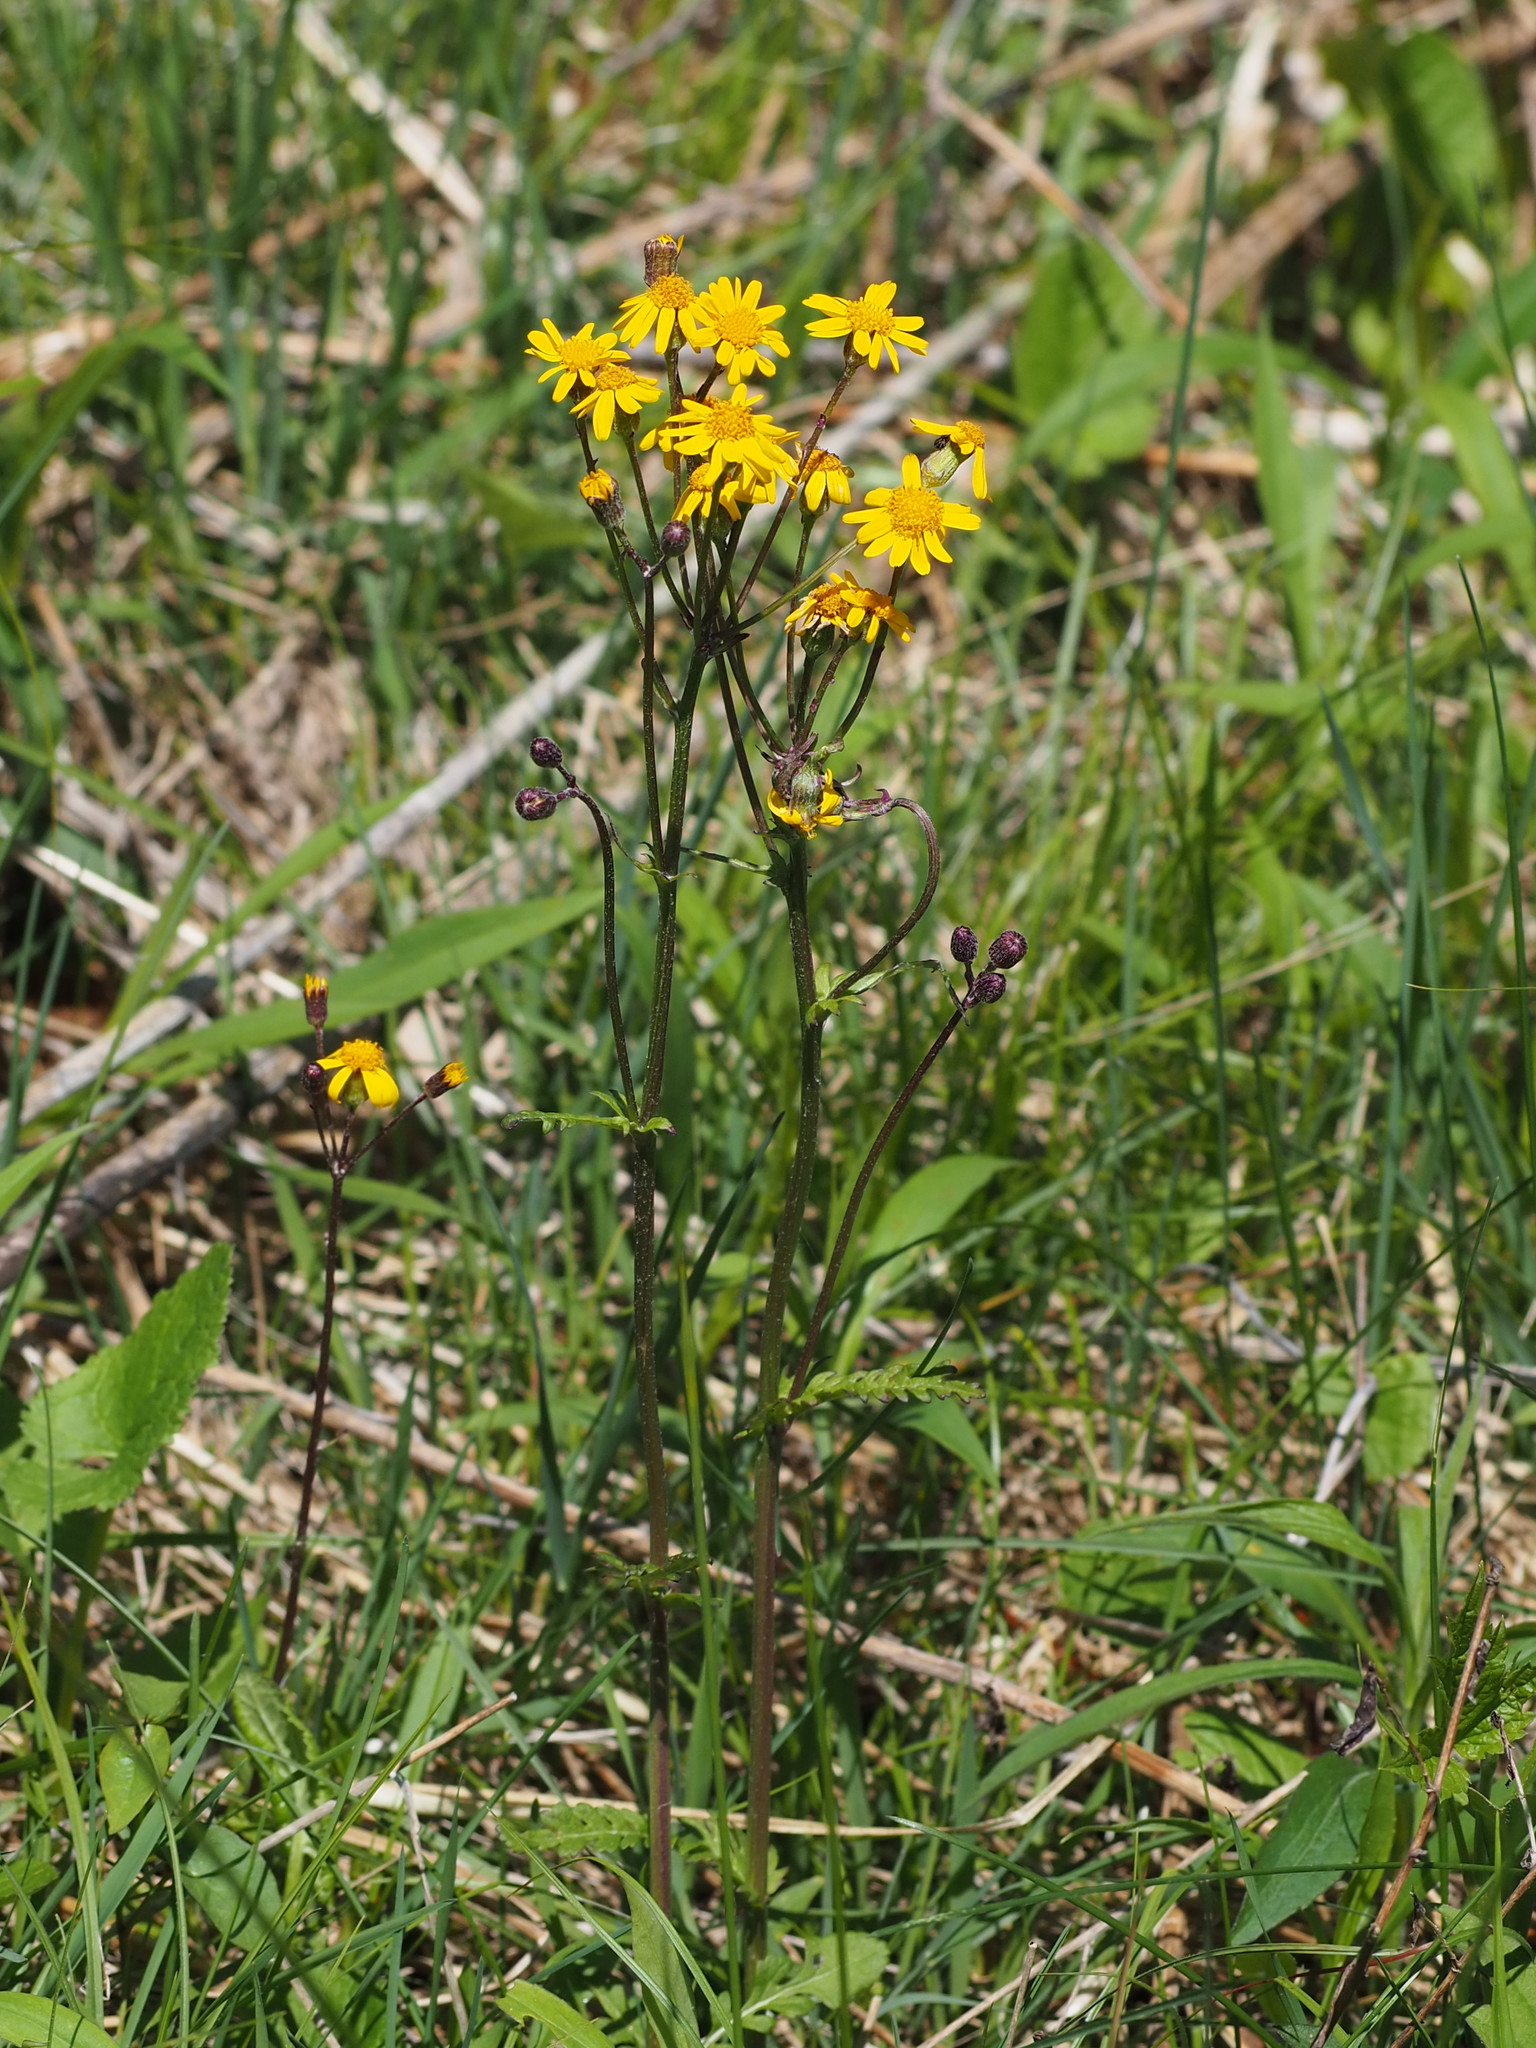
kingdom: Plantae
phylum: Tracheophyta
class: Magnoliopsida
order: Asterales
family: Asteraceae
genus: Packera
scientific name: Packera aurea
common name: Golden groundsel
